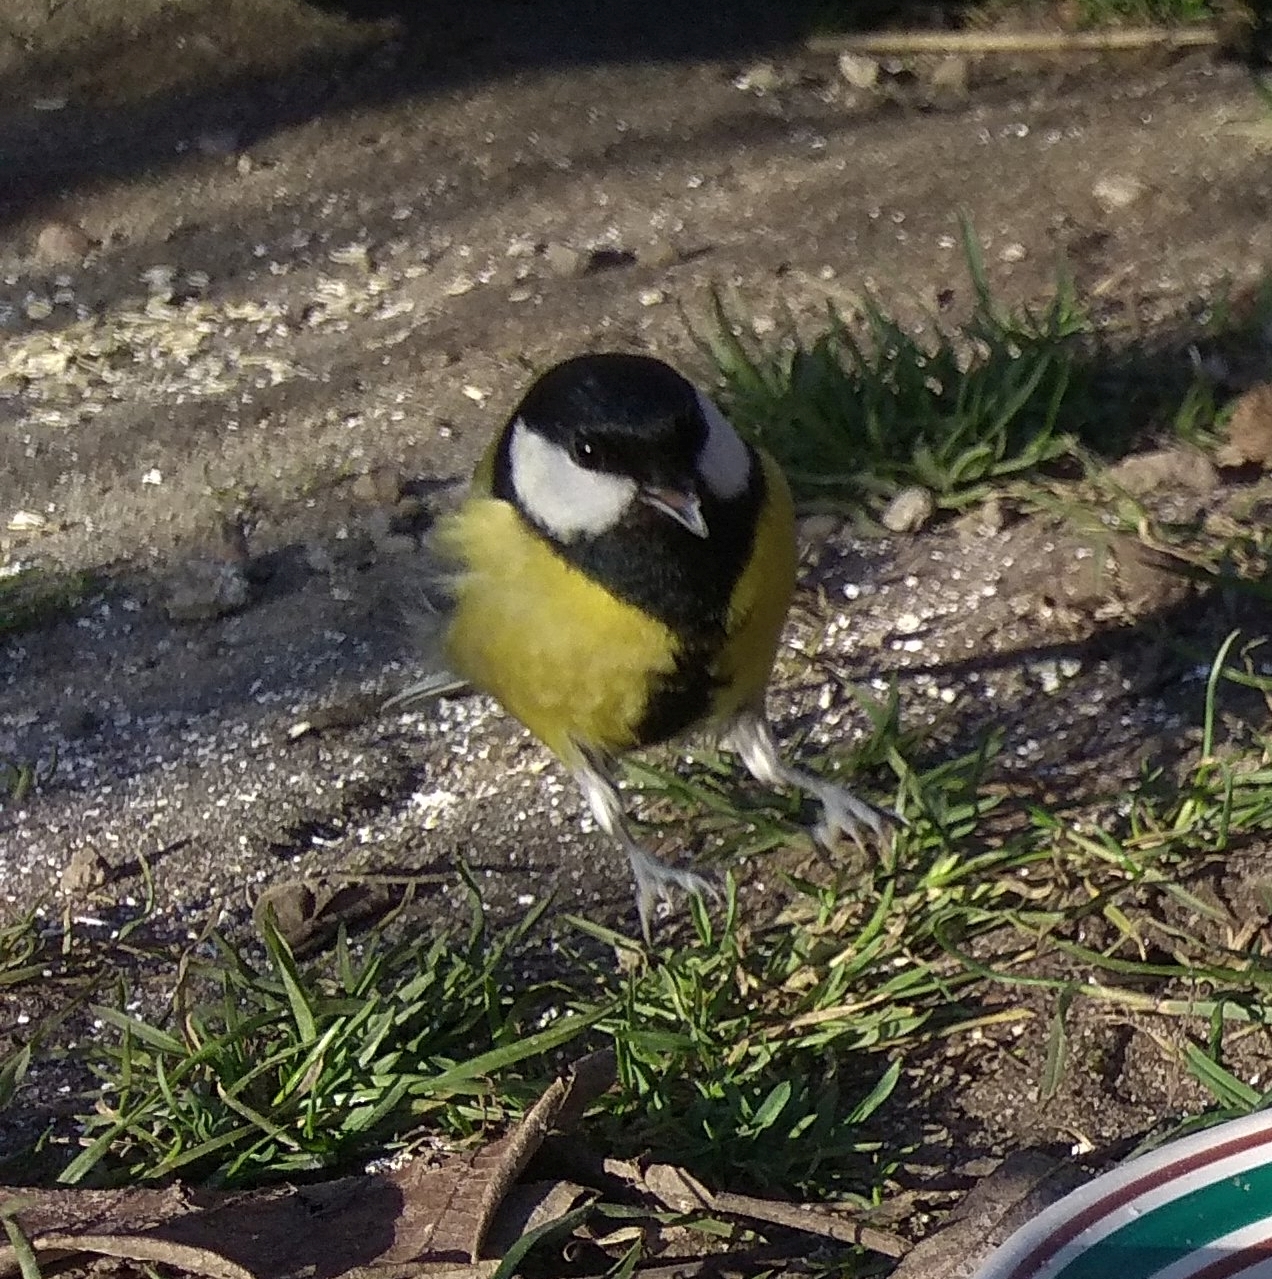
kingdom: Animalia
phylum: Chordata
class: Aves
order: Passeriformes
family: Paridae
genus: Parus
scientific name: Parus major
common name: Great tit
